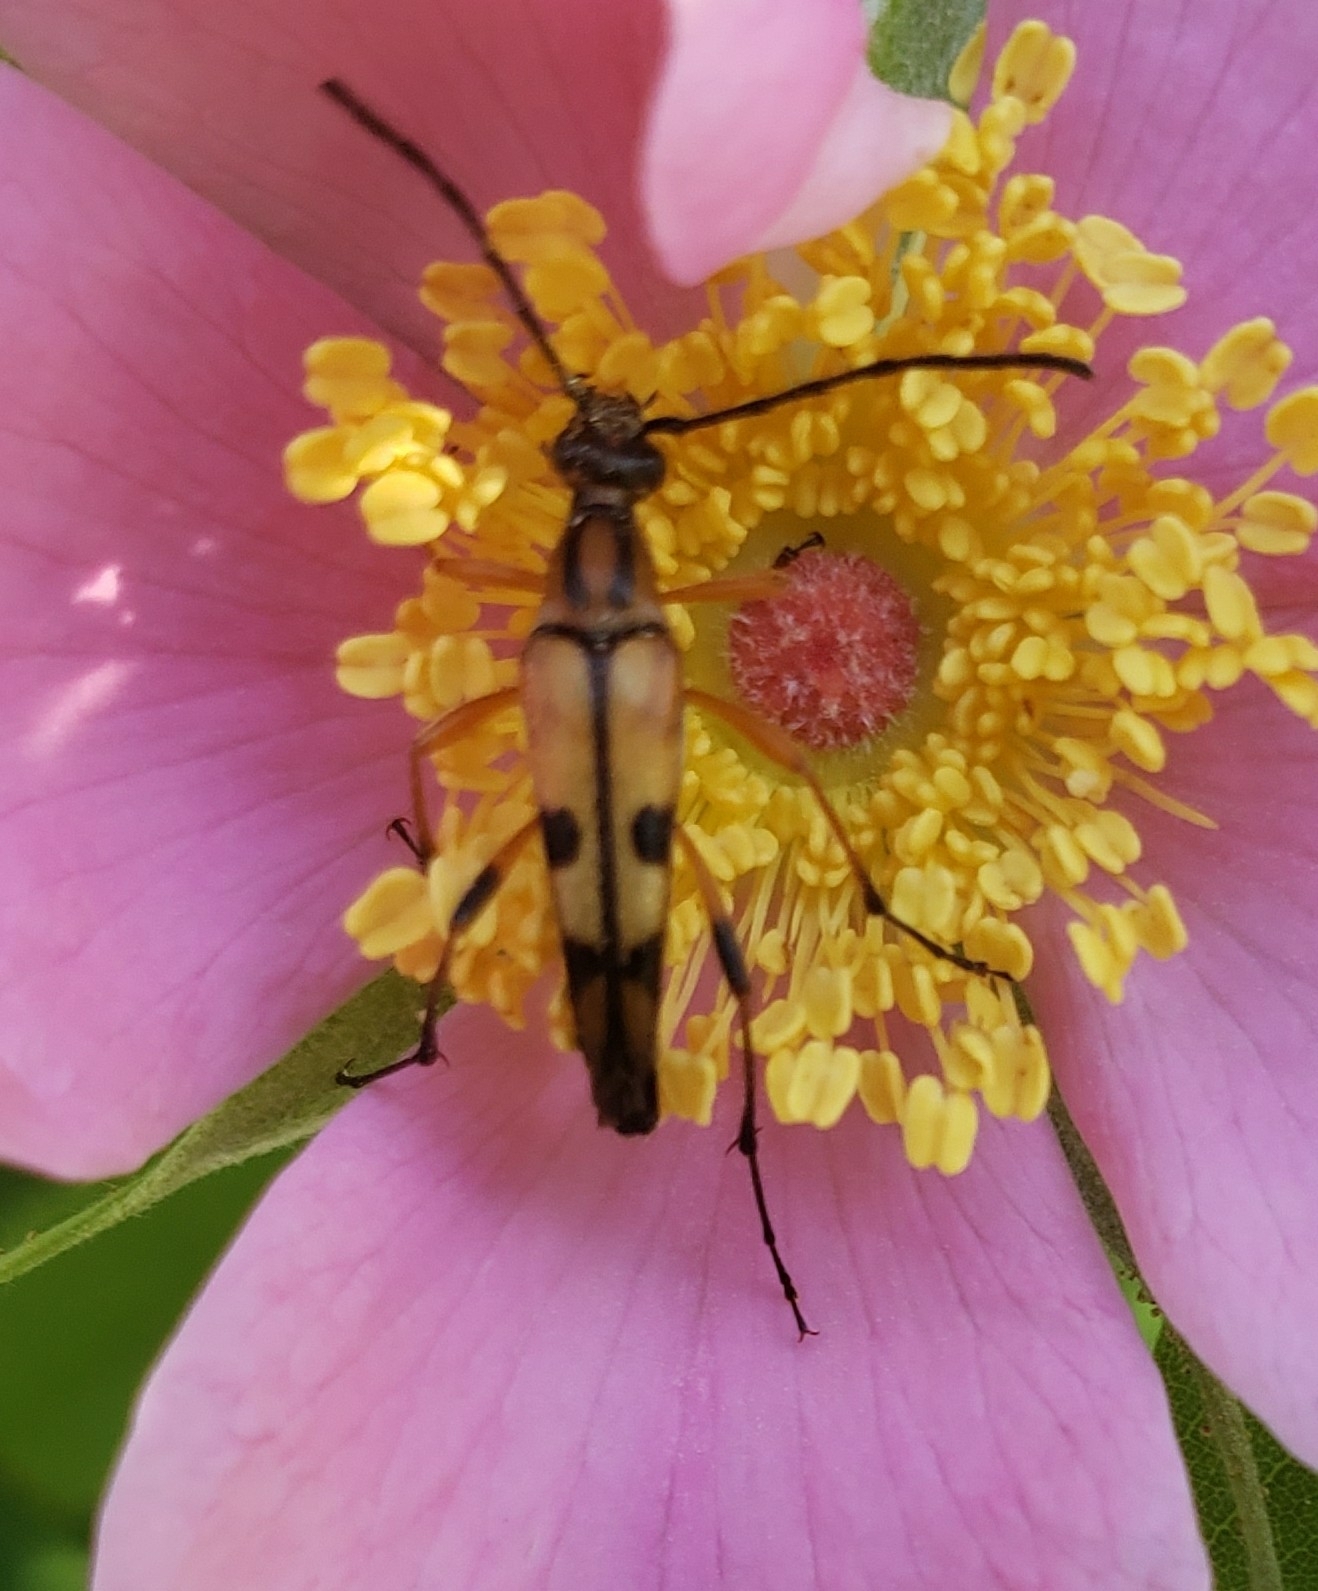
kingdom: Animalia
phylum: Arthropoda
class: Insecta
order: Coleoptera
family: Cerambycidae
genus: Strangalia
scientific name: Strangalia famelica
